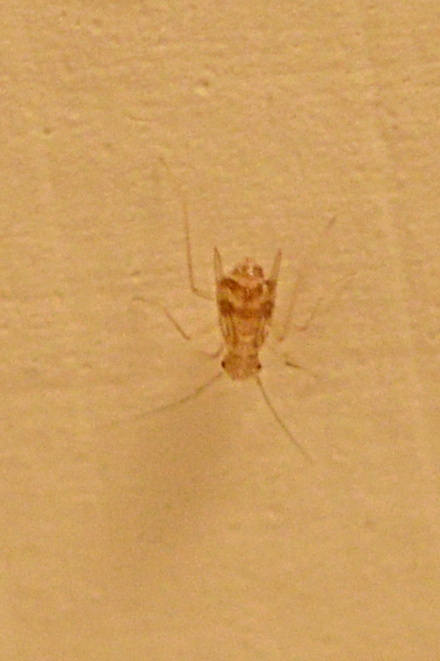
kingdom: Animalia
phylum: Arthropoda
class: Insecta
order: Psocodea
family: Psyllipsocidae
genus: Dorypteryx
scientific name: Dorypteryx domestica
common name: Cave barklouse
